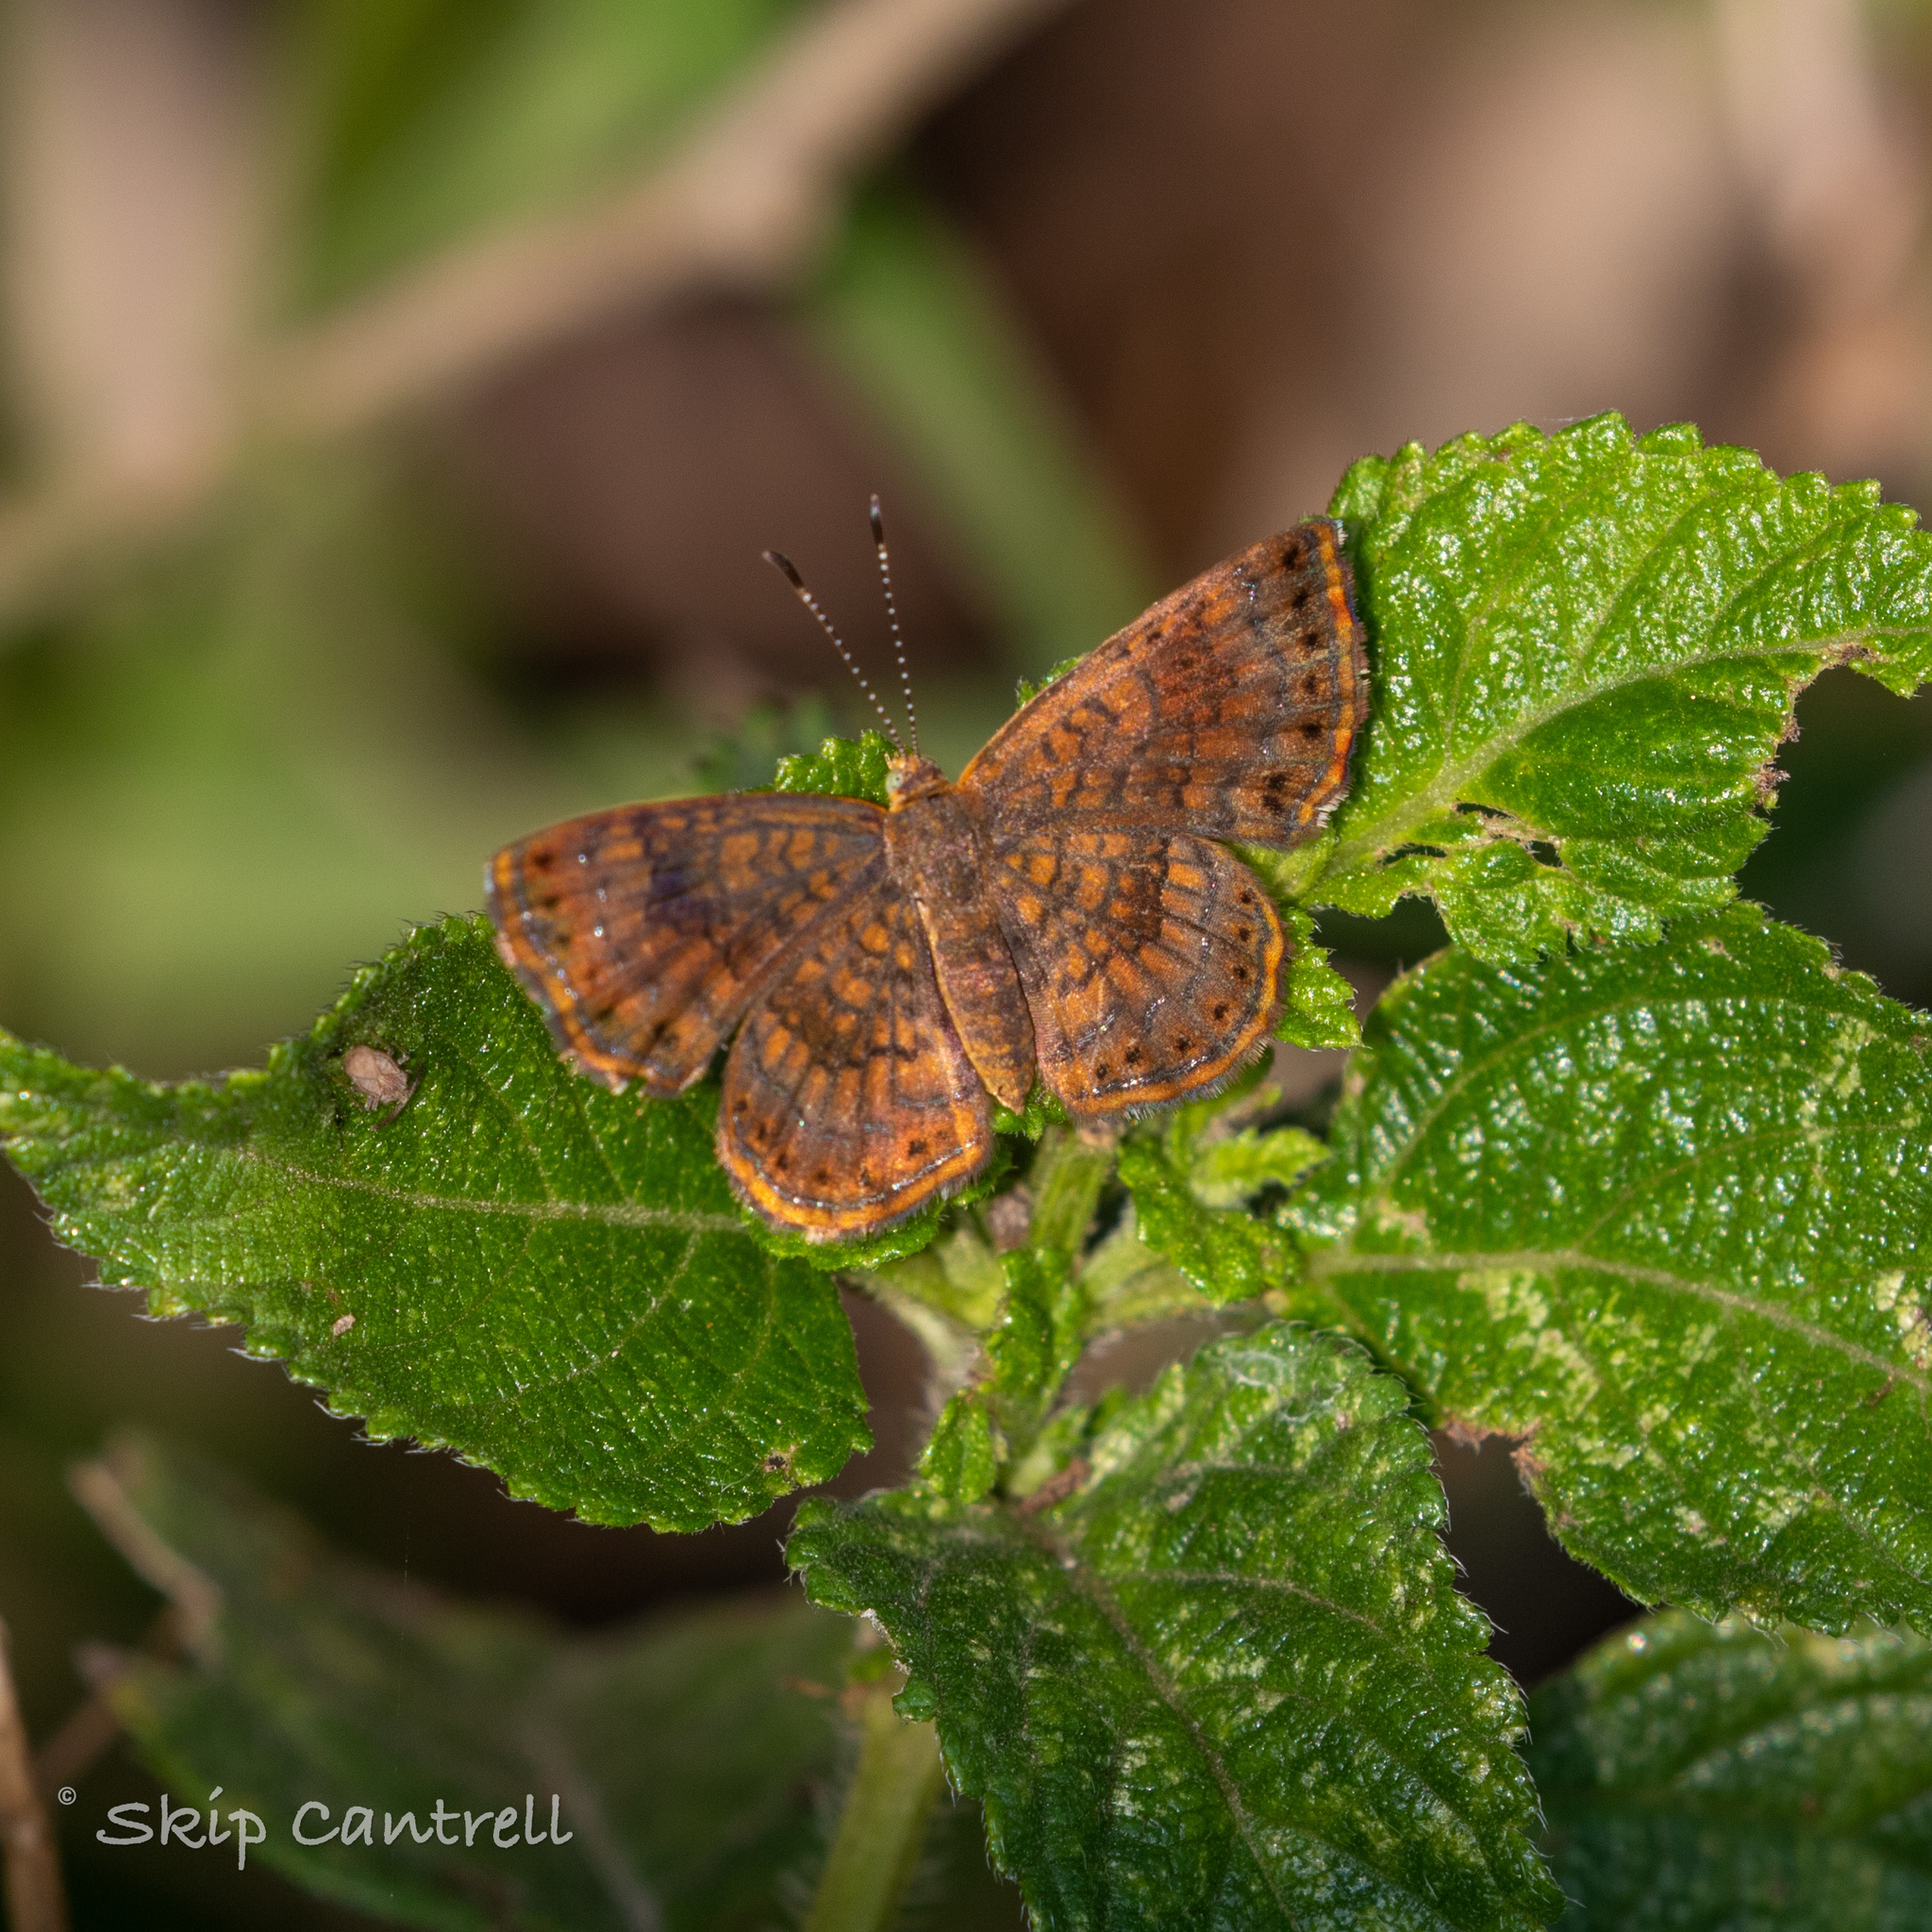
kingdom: Animalia
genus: Calephelis
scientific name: Calephelis nemesis
